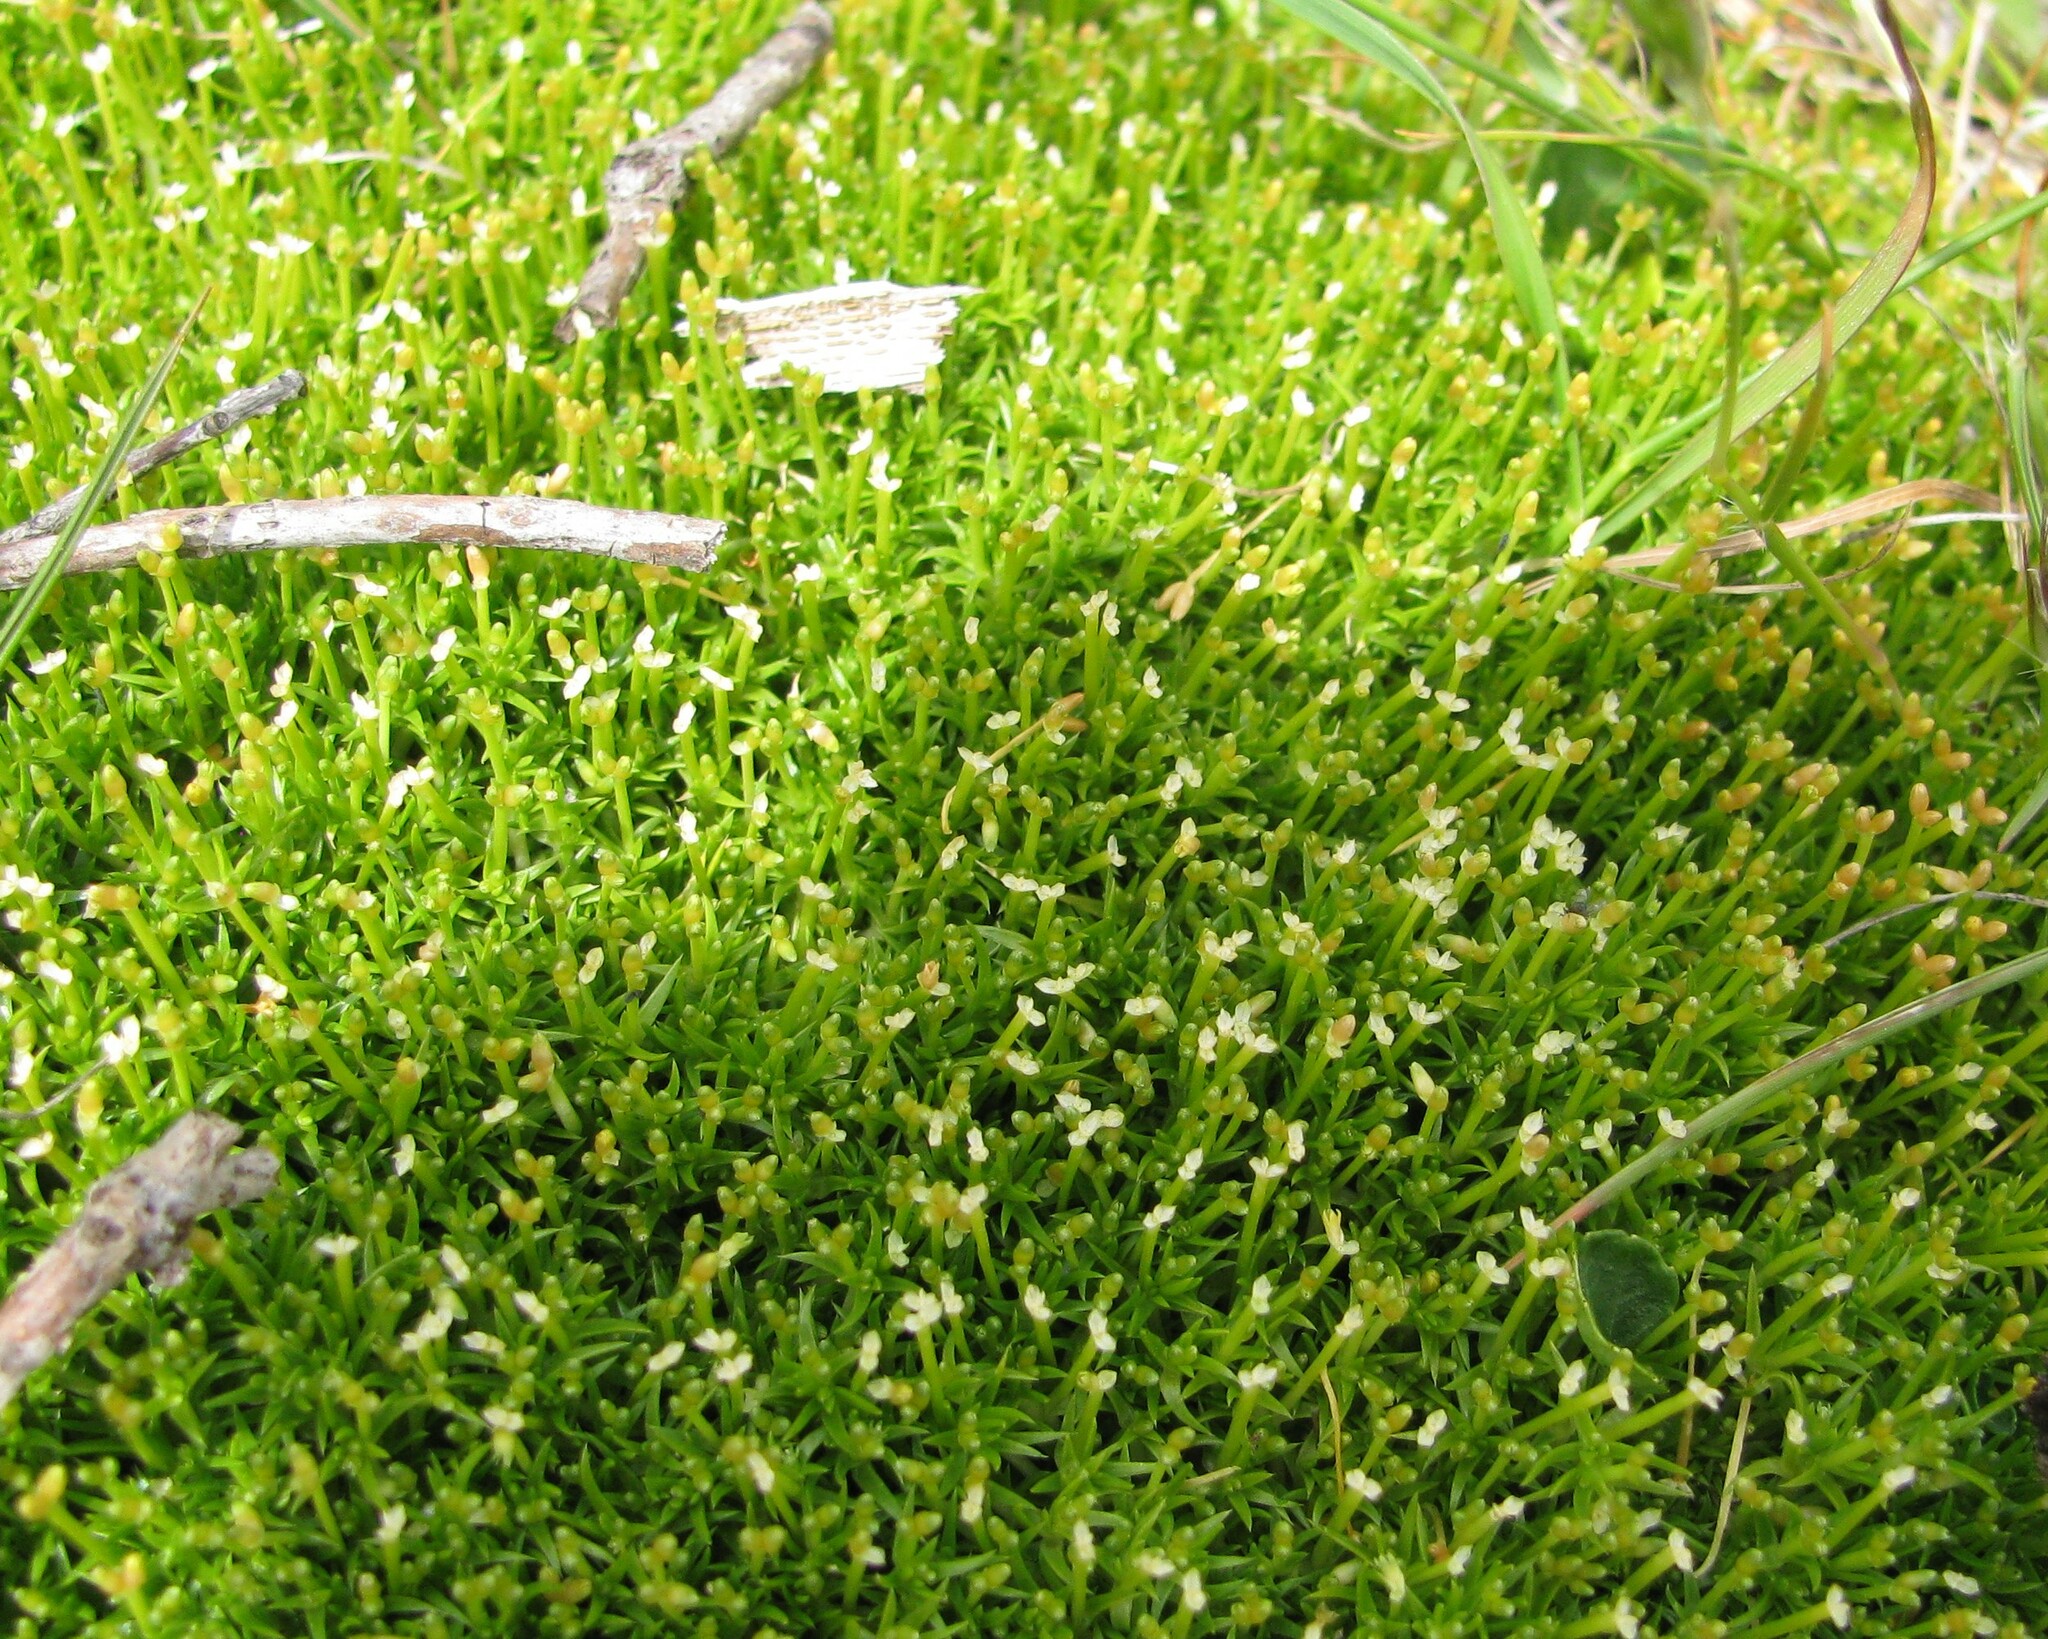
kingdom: Plantae
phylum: Tracheophyta
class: Magnoliopsida
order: Caryophyllales
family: Caryophyllaceae
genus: Scleranthus
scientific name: Scleranthus biflorus
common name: Two-flower knawel
